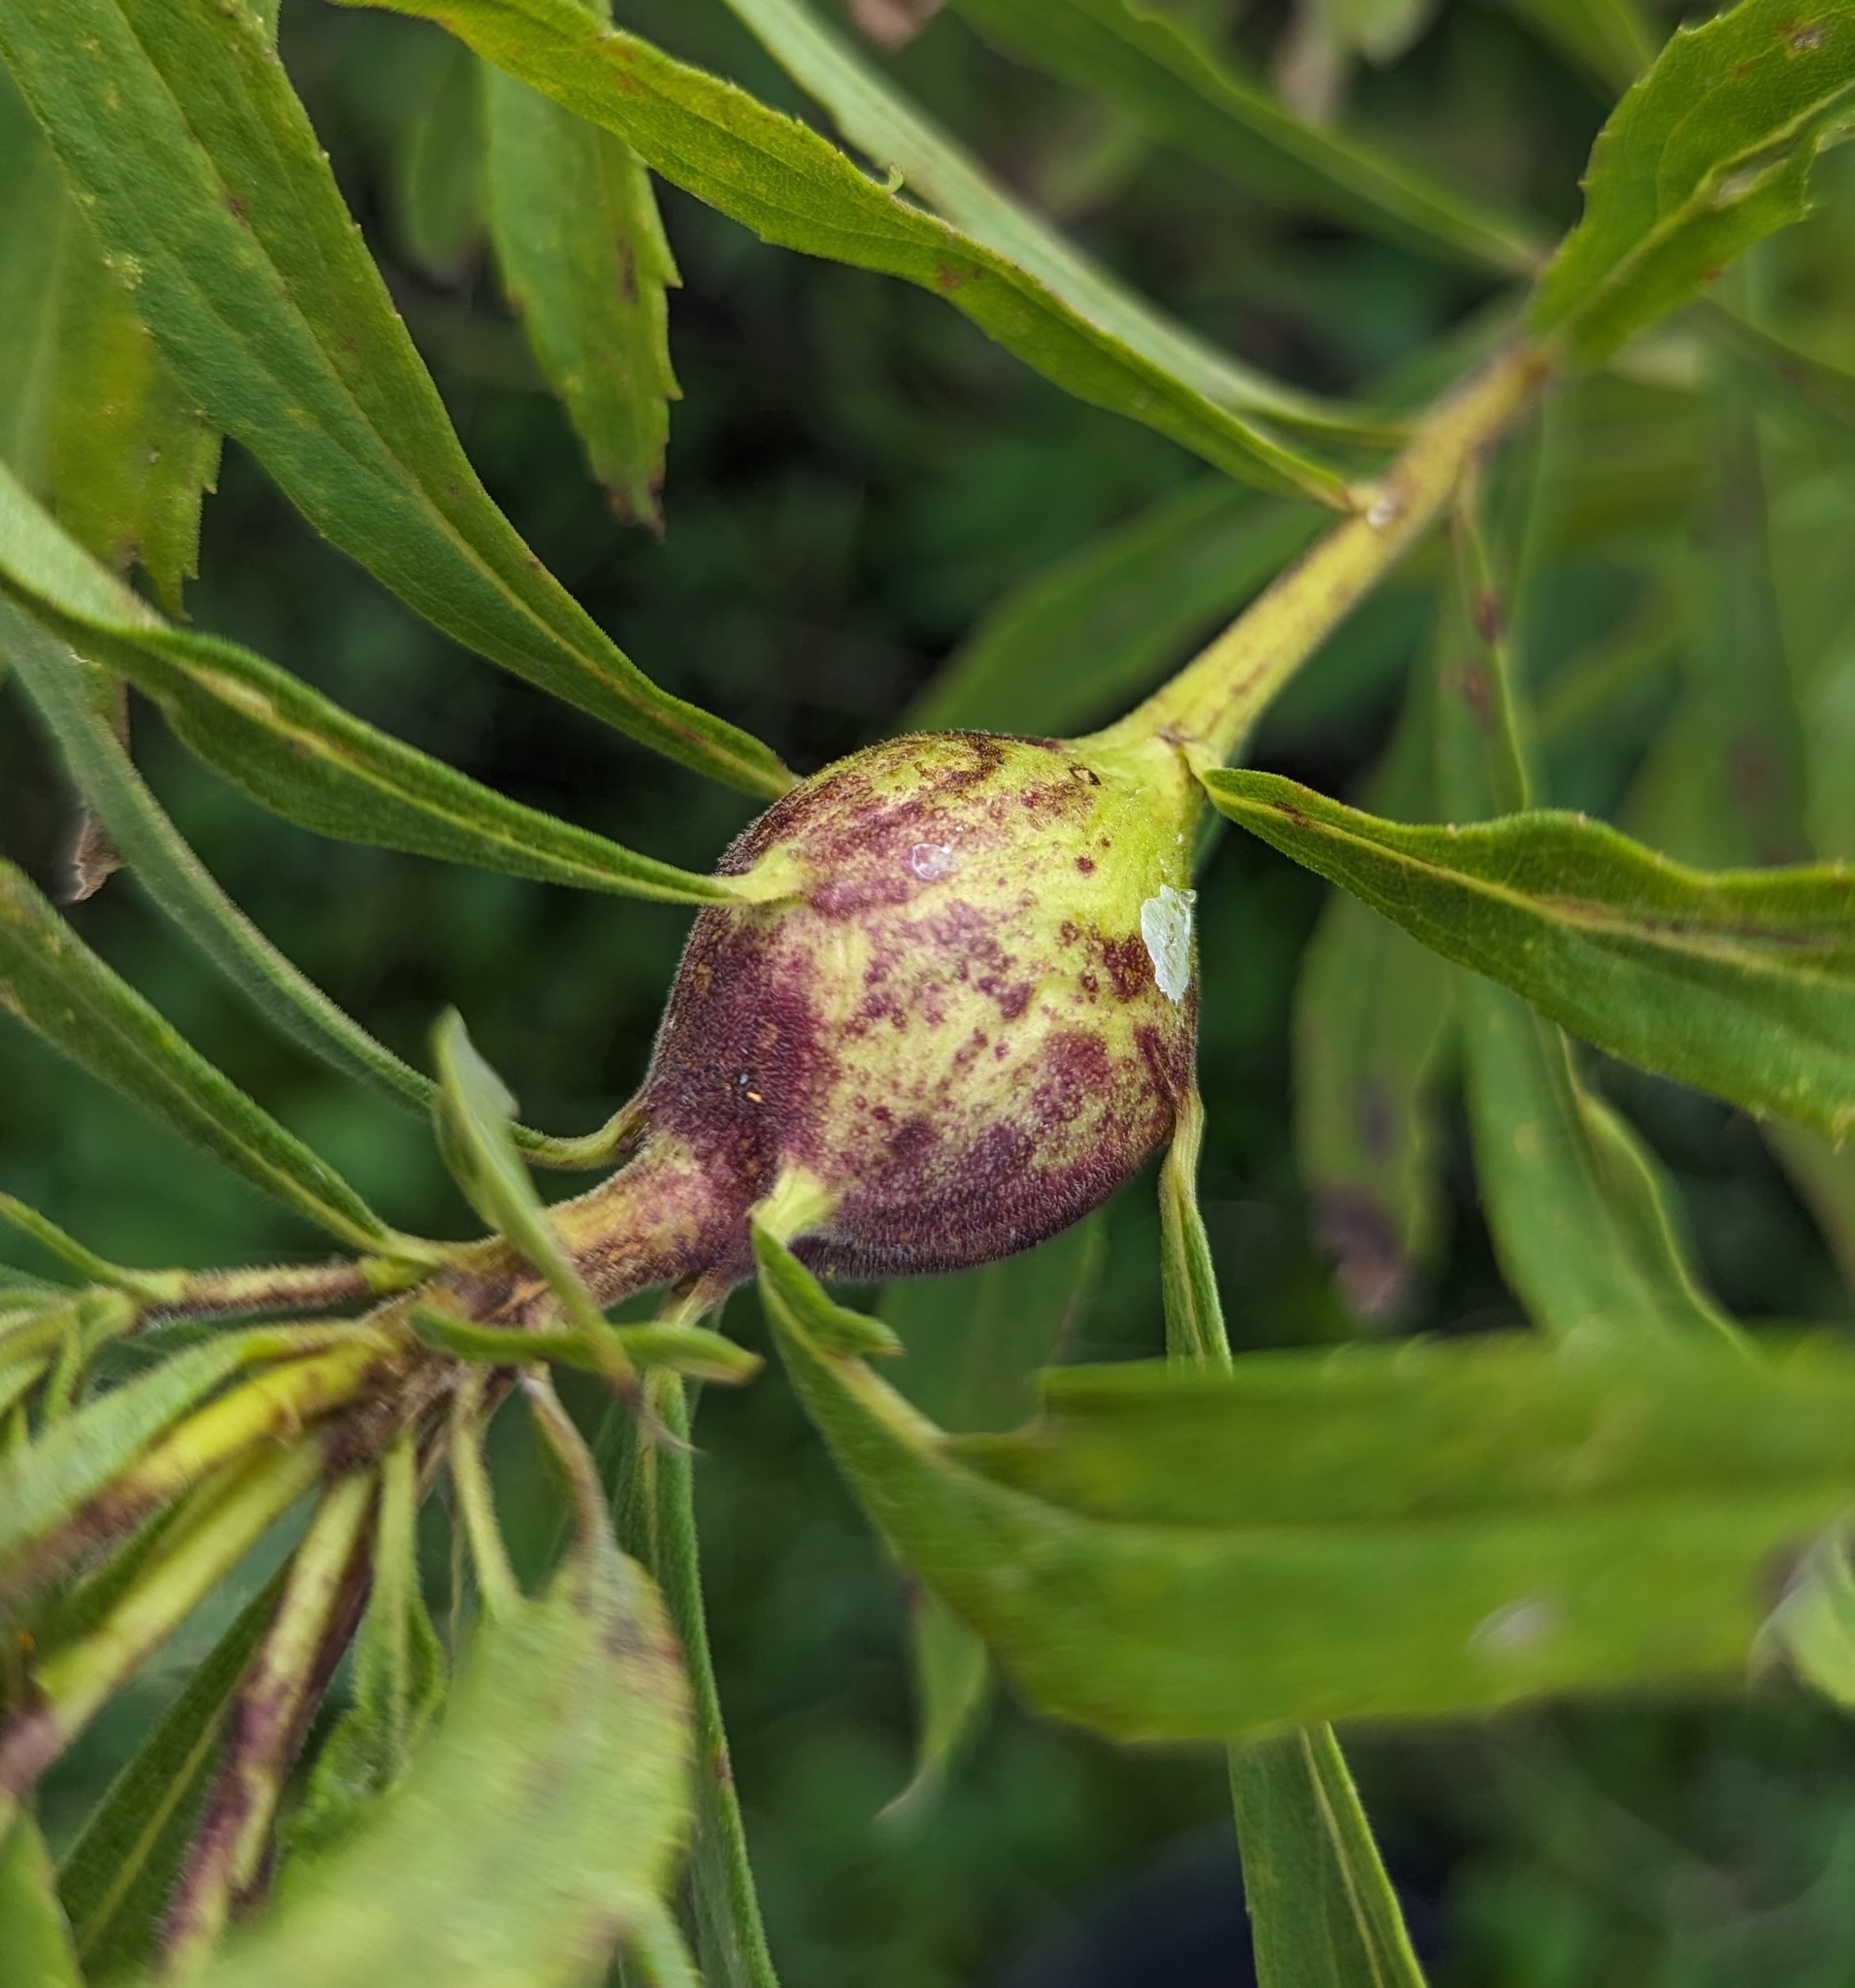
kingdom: Animalia
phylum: Arthropoda
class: Insecta
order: Diptera
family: Tephritidae
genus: Eurosta
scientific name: Eurosta solidaginis
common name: Goldenrod gall fly
